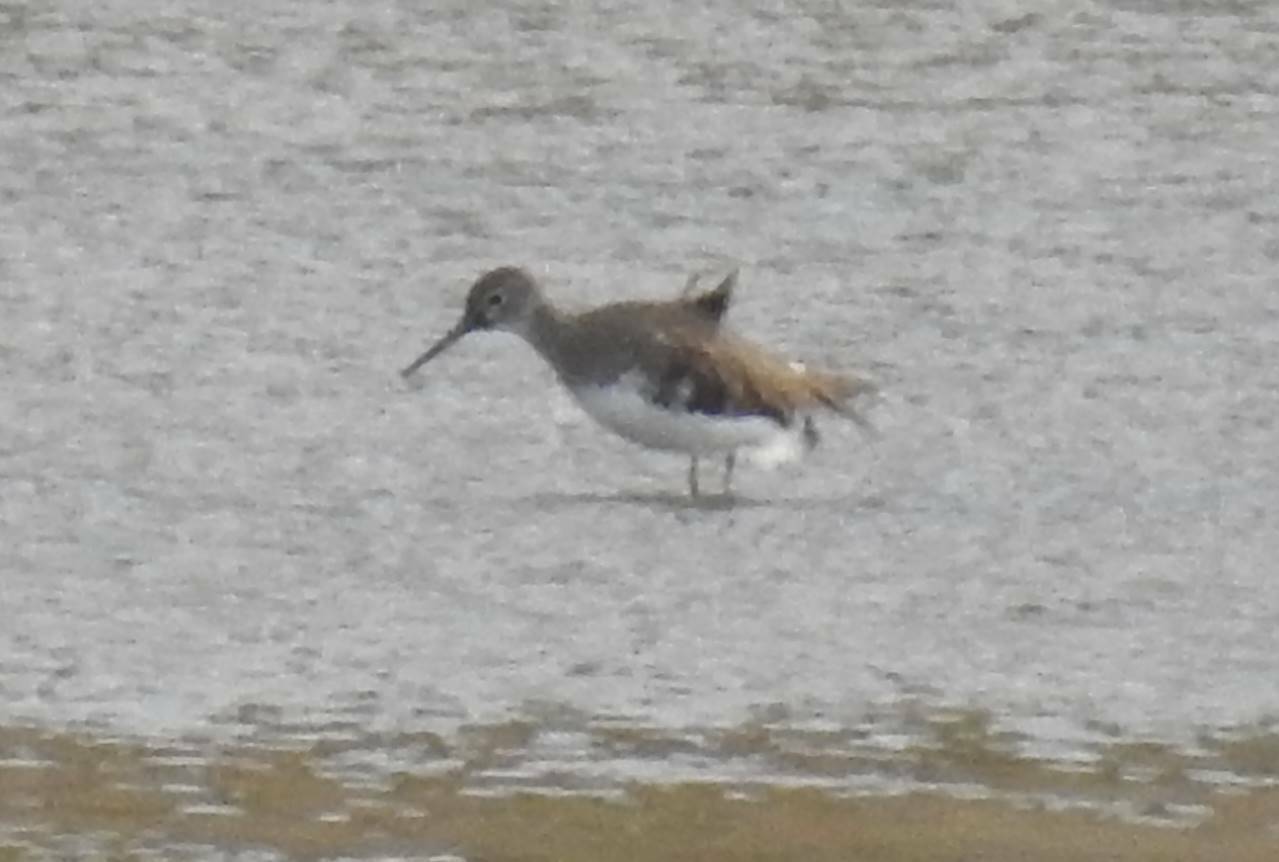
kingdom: Animalia
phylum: Chordata
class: Aves
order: Charadriiformes
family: Scolopacidae
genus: Tringa
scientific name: Tringa ochropus
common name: Green sandpiper
